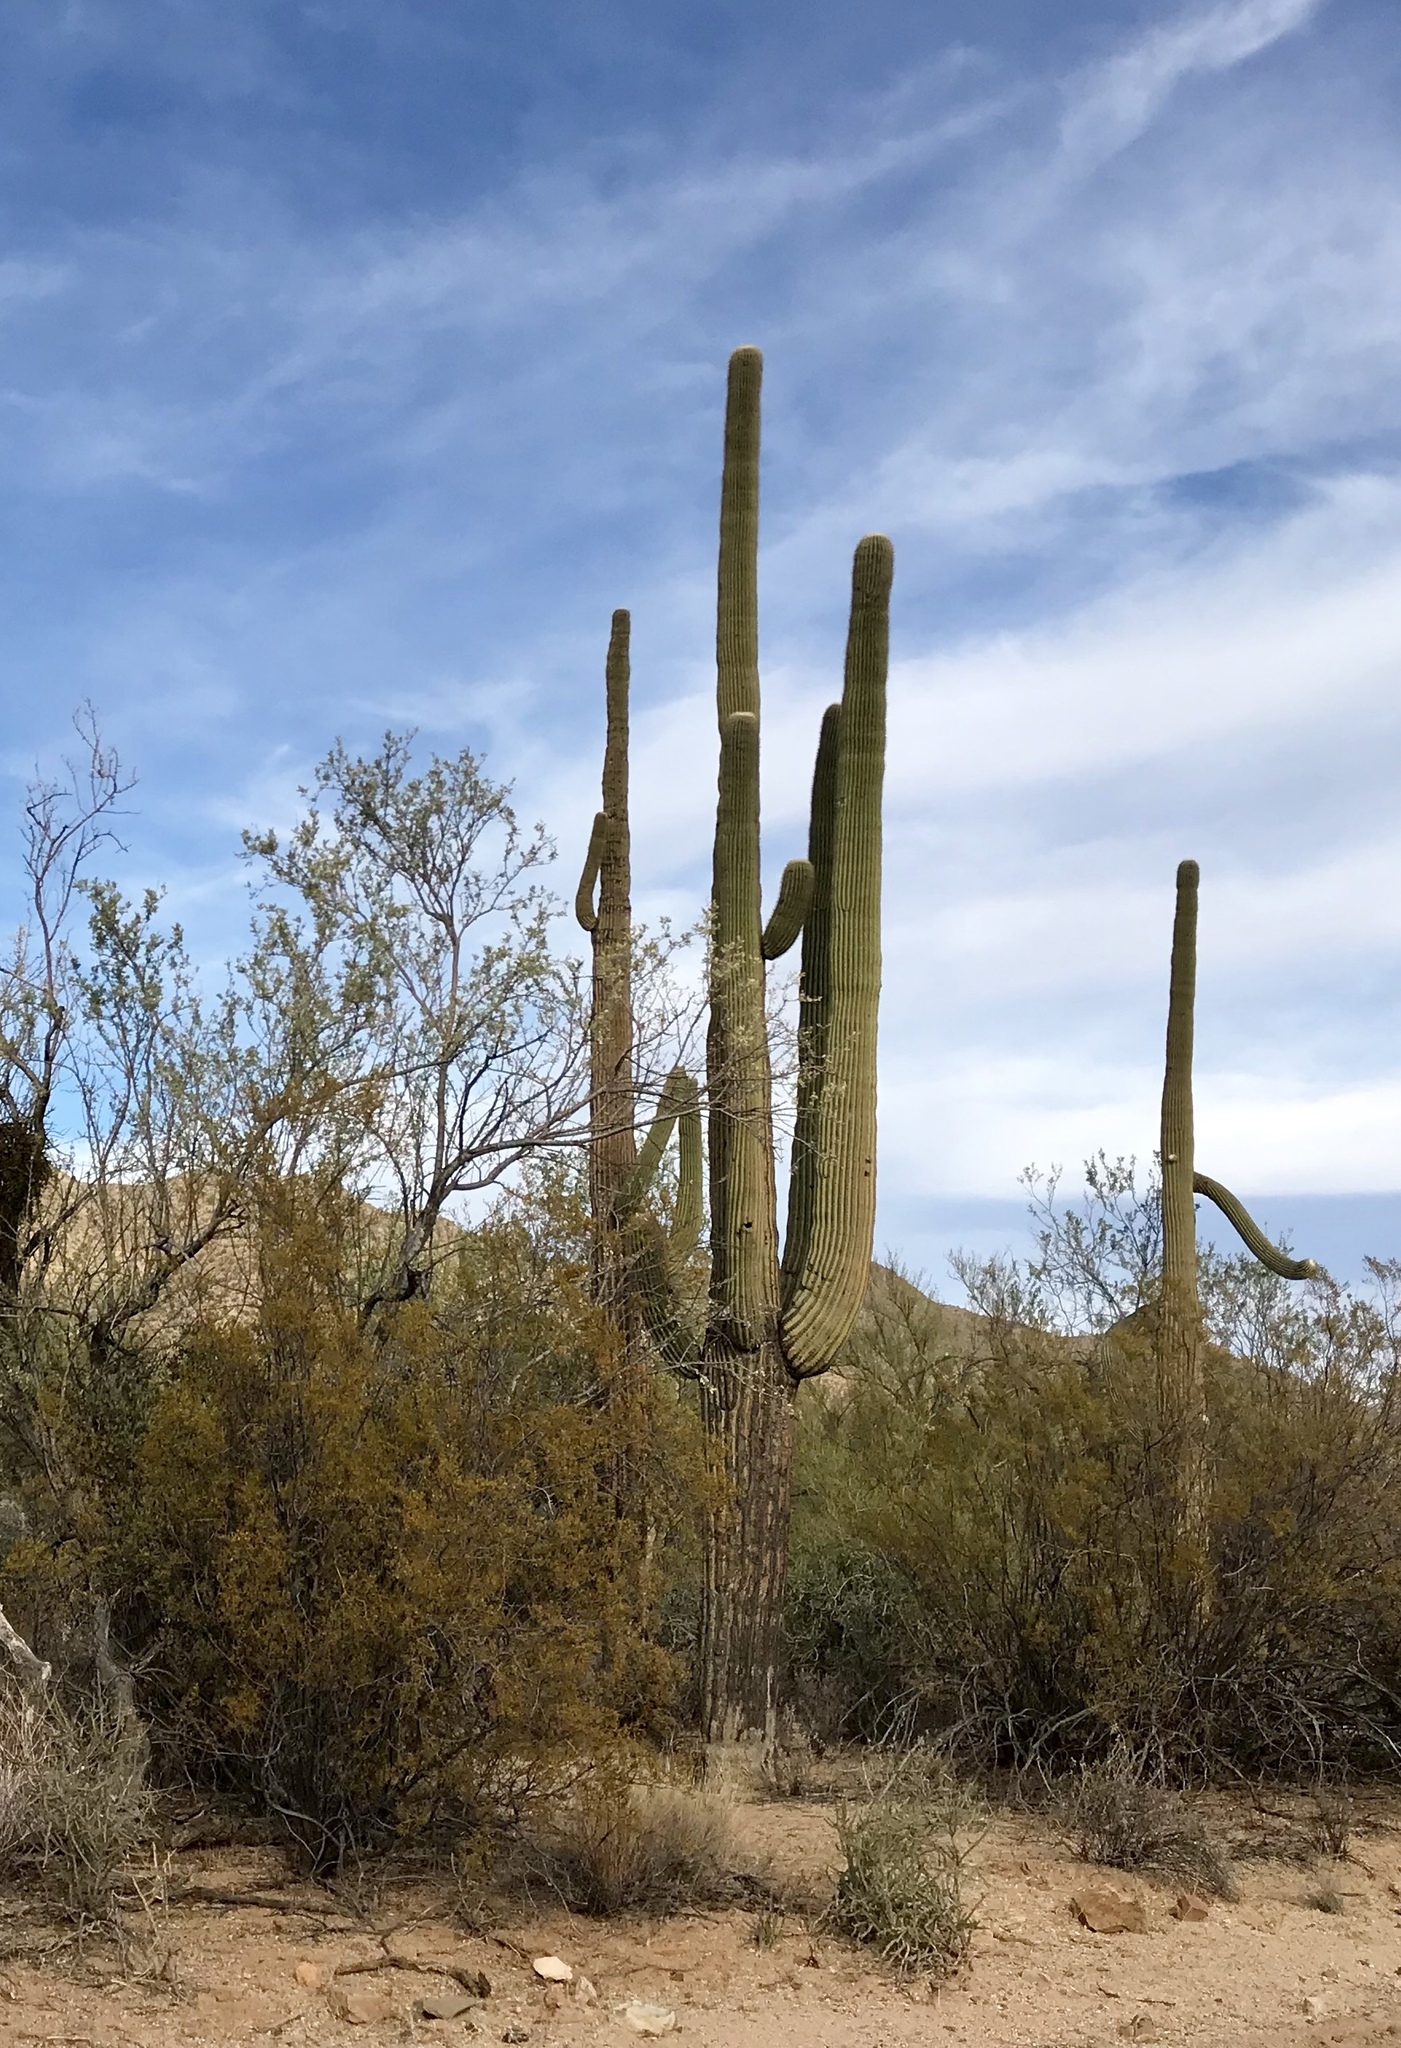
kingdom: Plantae
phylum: Tracheophyta
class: Magnoliopsida
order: Caryophyllales
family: Cactaceae
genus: Carnegiea
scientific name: Carnegiea gigantea
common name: Saguaro
